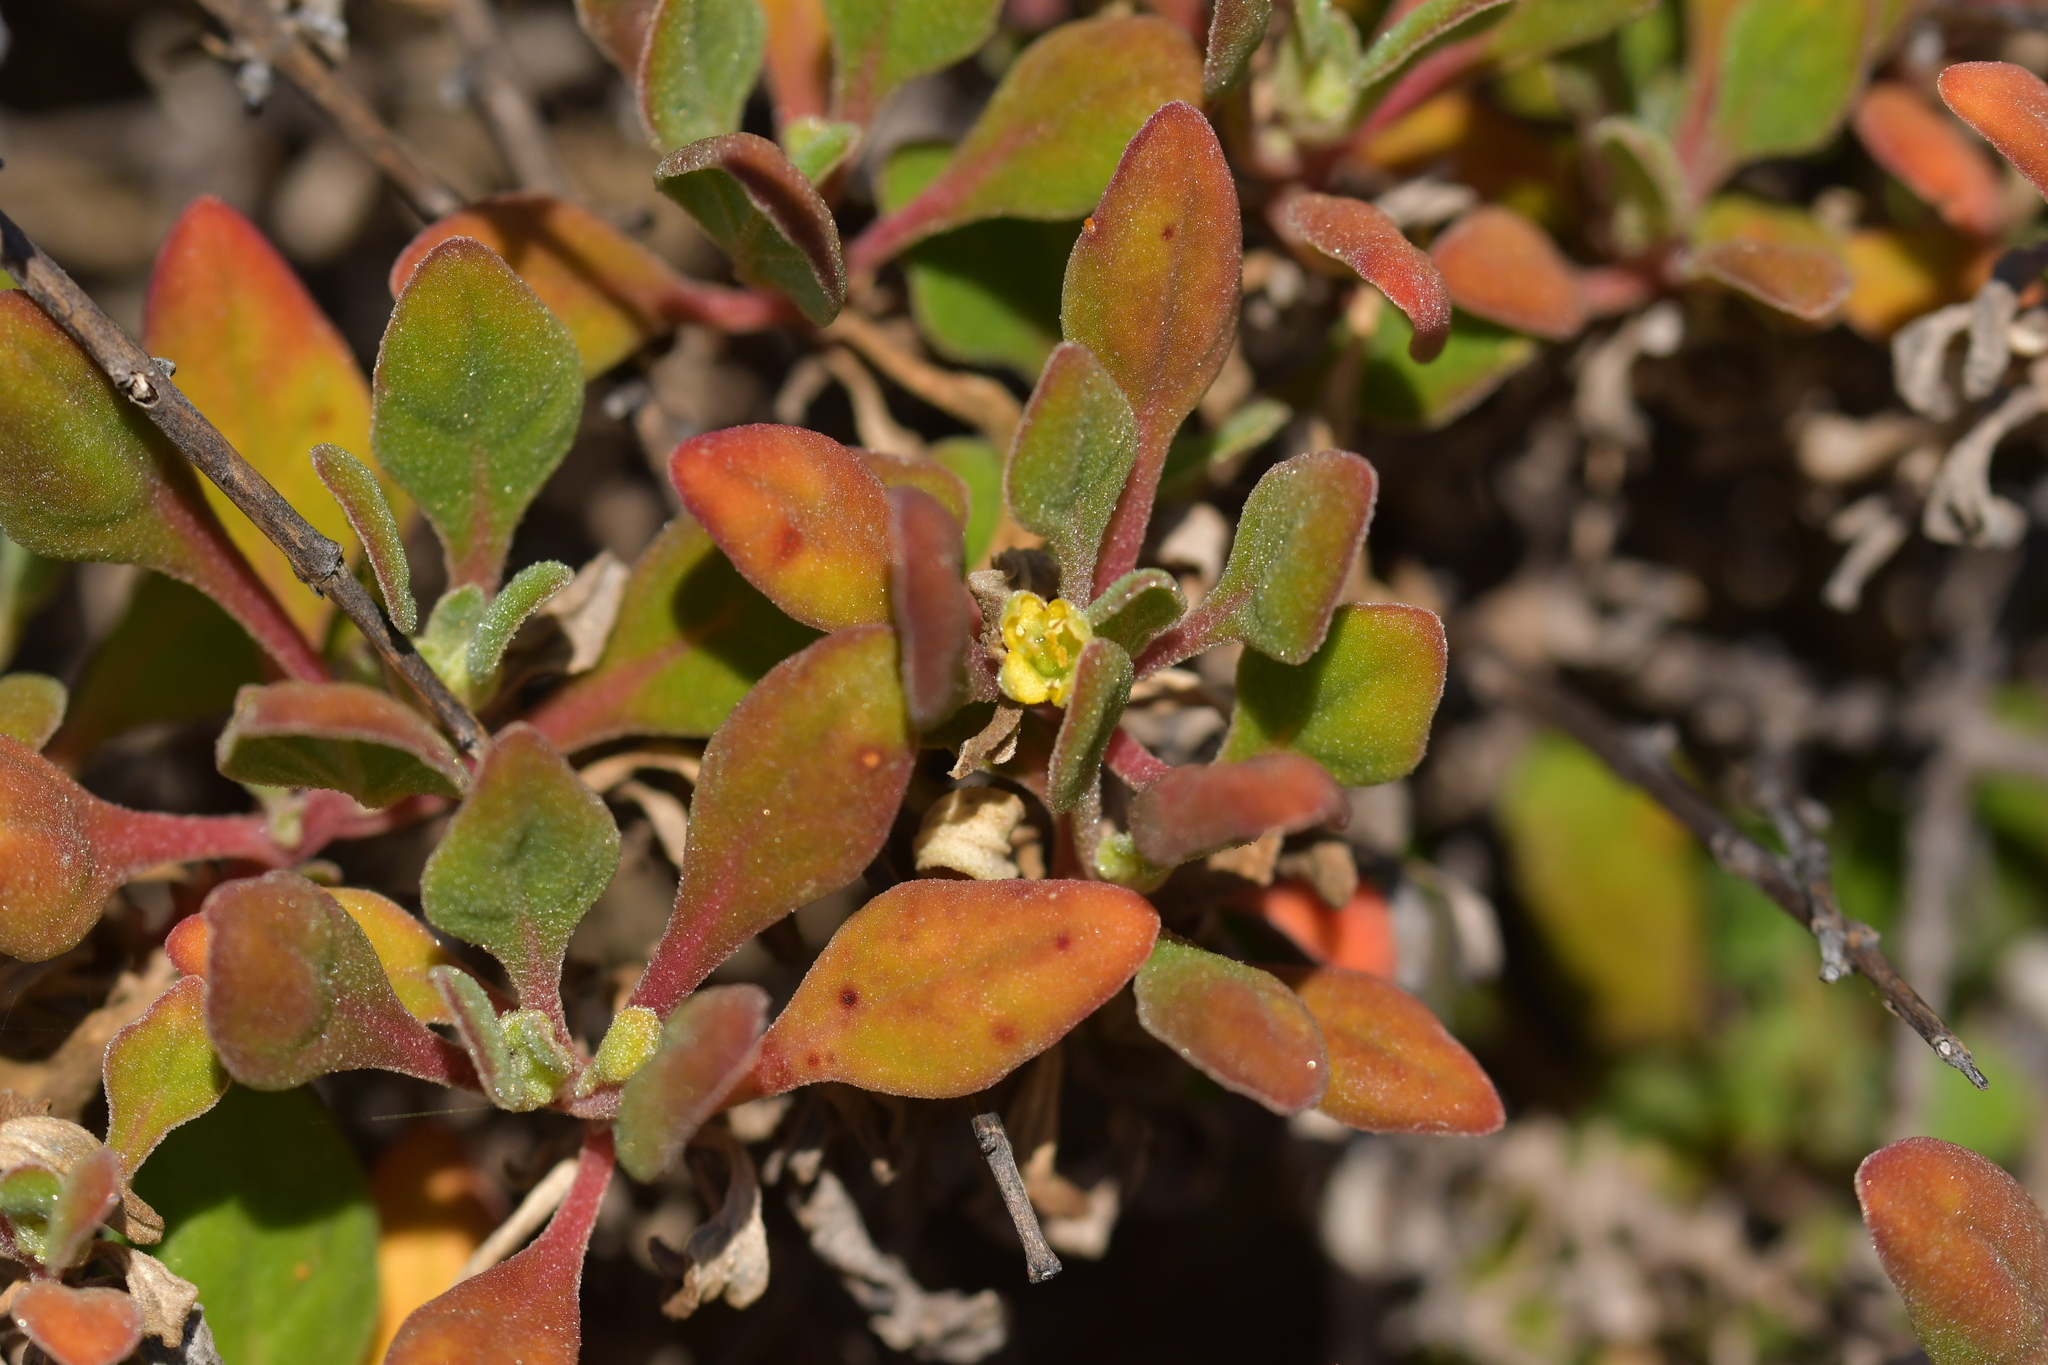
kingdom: Plantae
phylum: Tracheophyta
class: Magnoliopsida
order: Caryophyllales
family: Aizoaceae
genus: Tetragonia
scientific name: Tetragonia implexicoma
